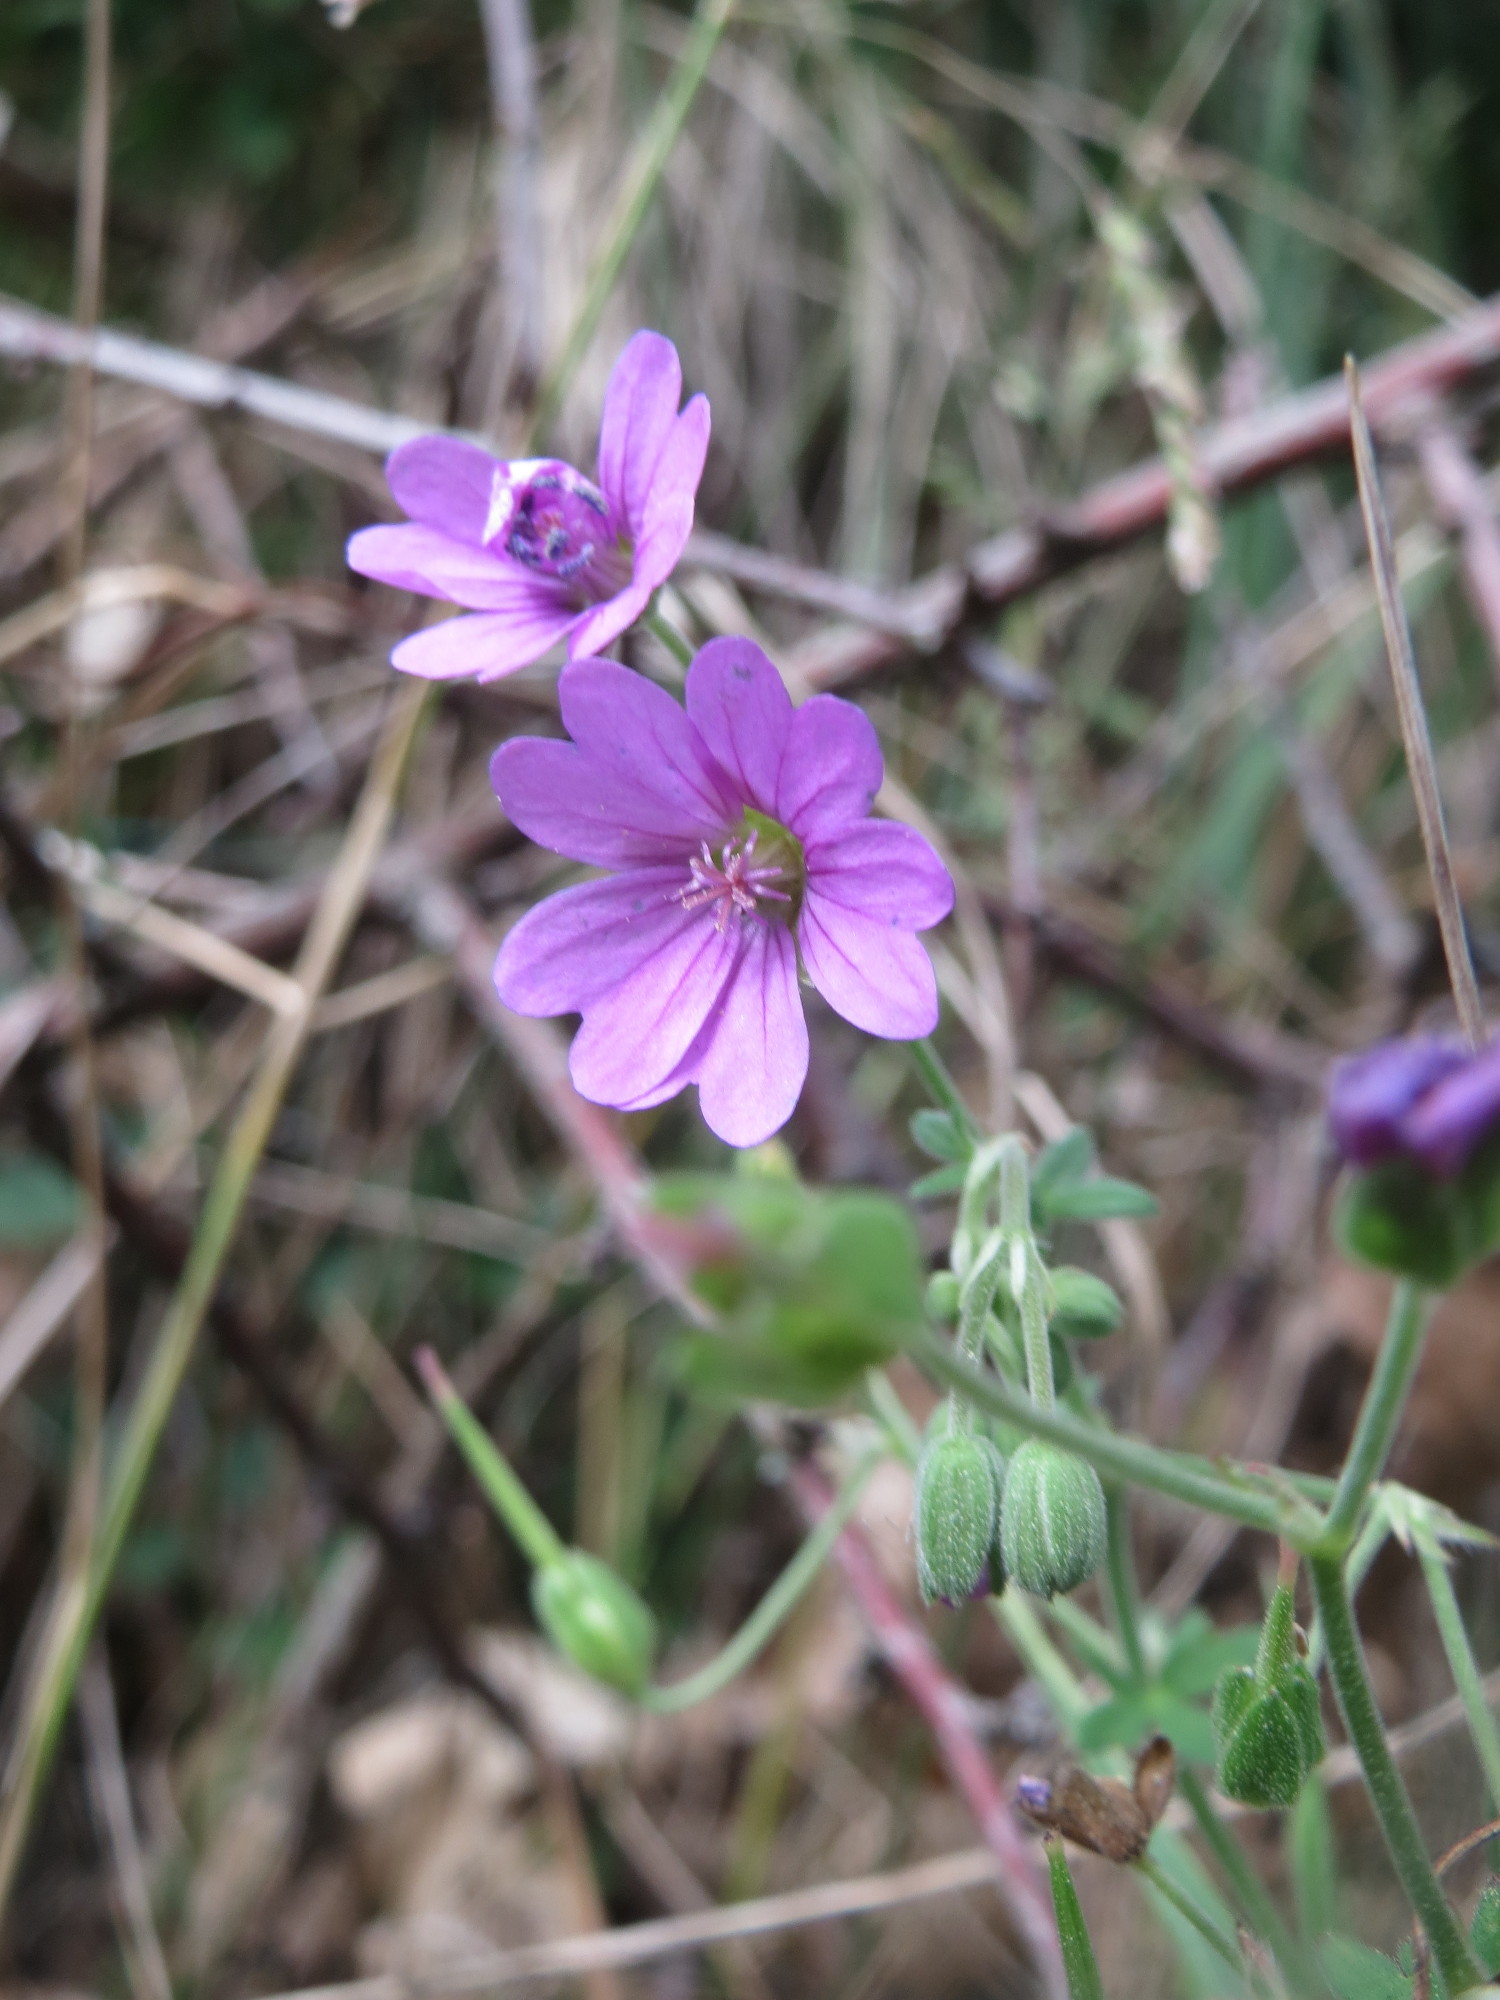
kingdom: Plantae
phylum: Tracheophyta
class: Magnoliopsida
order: Geraniales
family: Geraniaceae
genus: Geranium
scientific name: Geranium pyrenaicum
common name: Hedgerow crane's-bill
